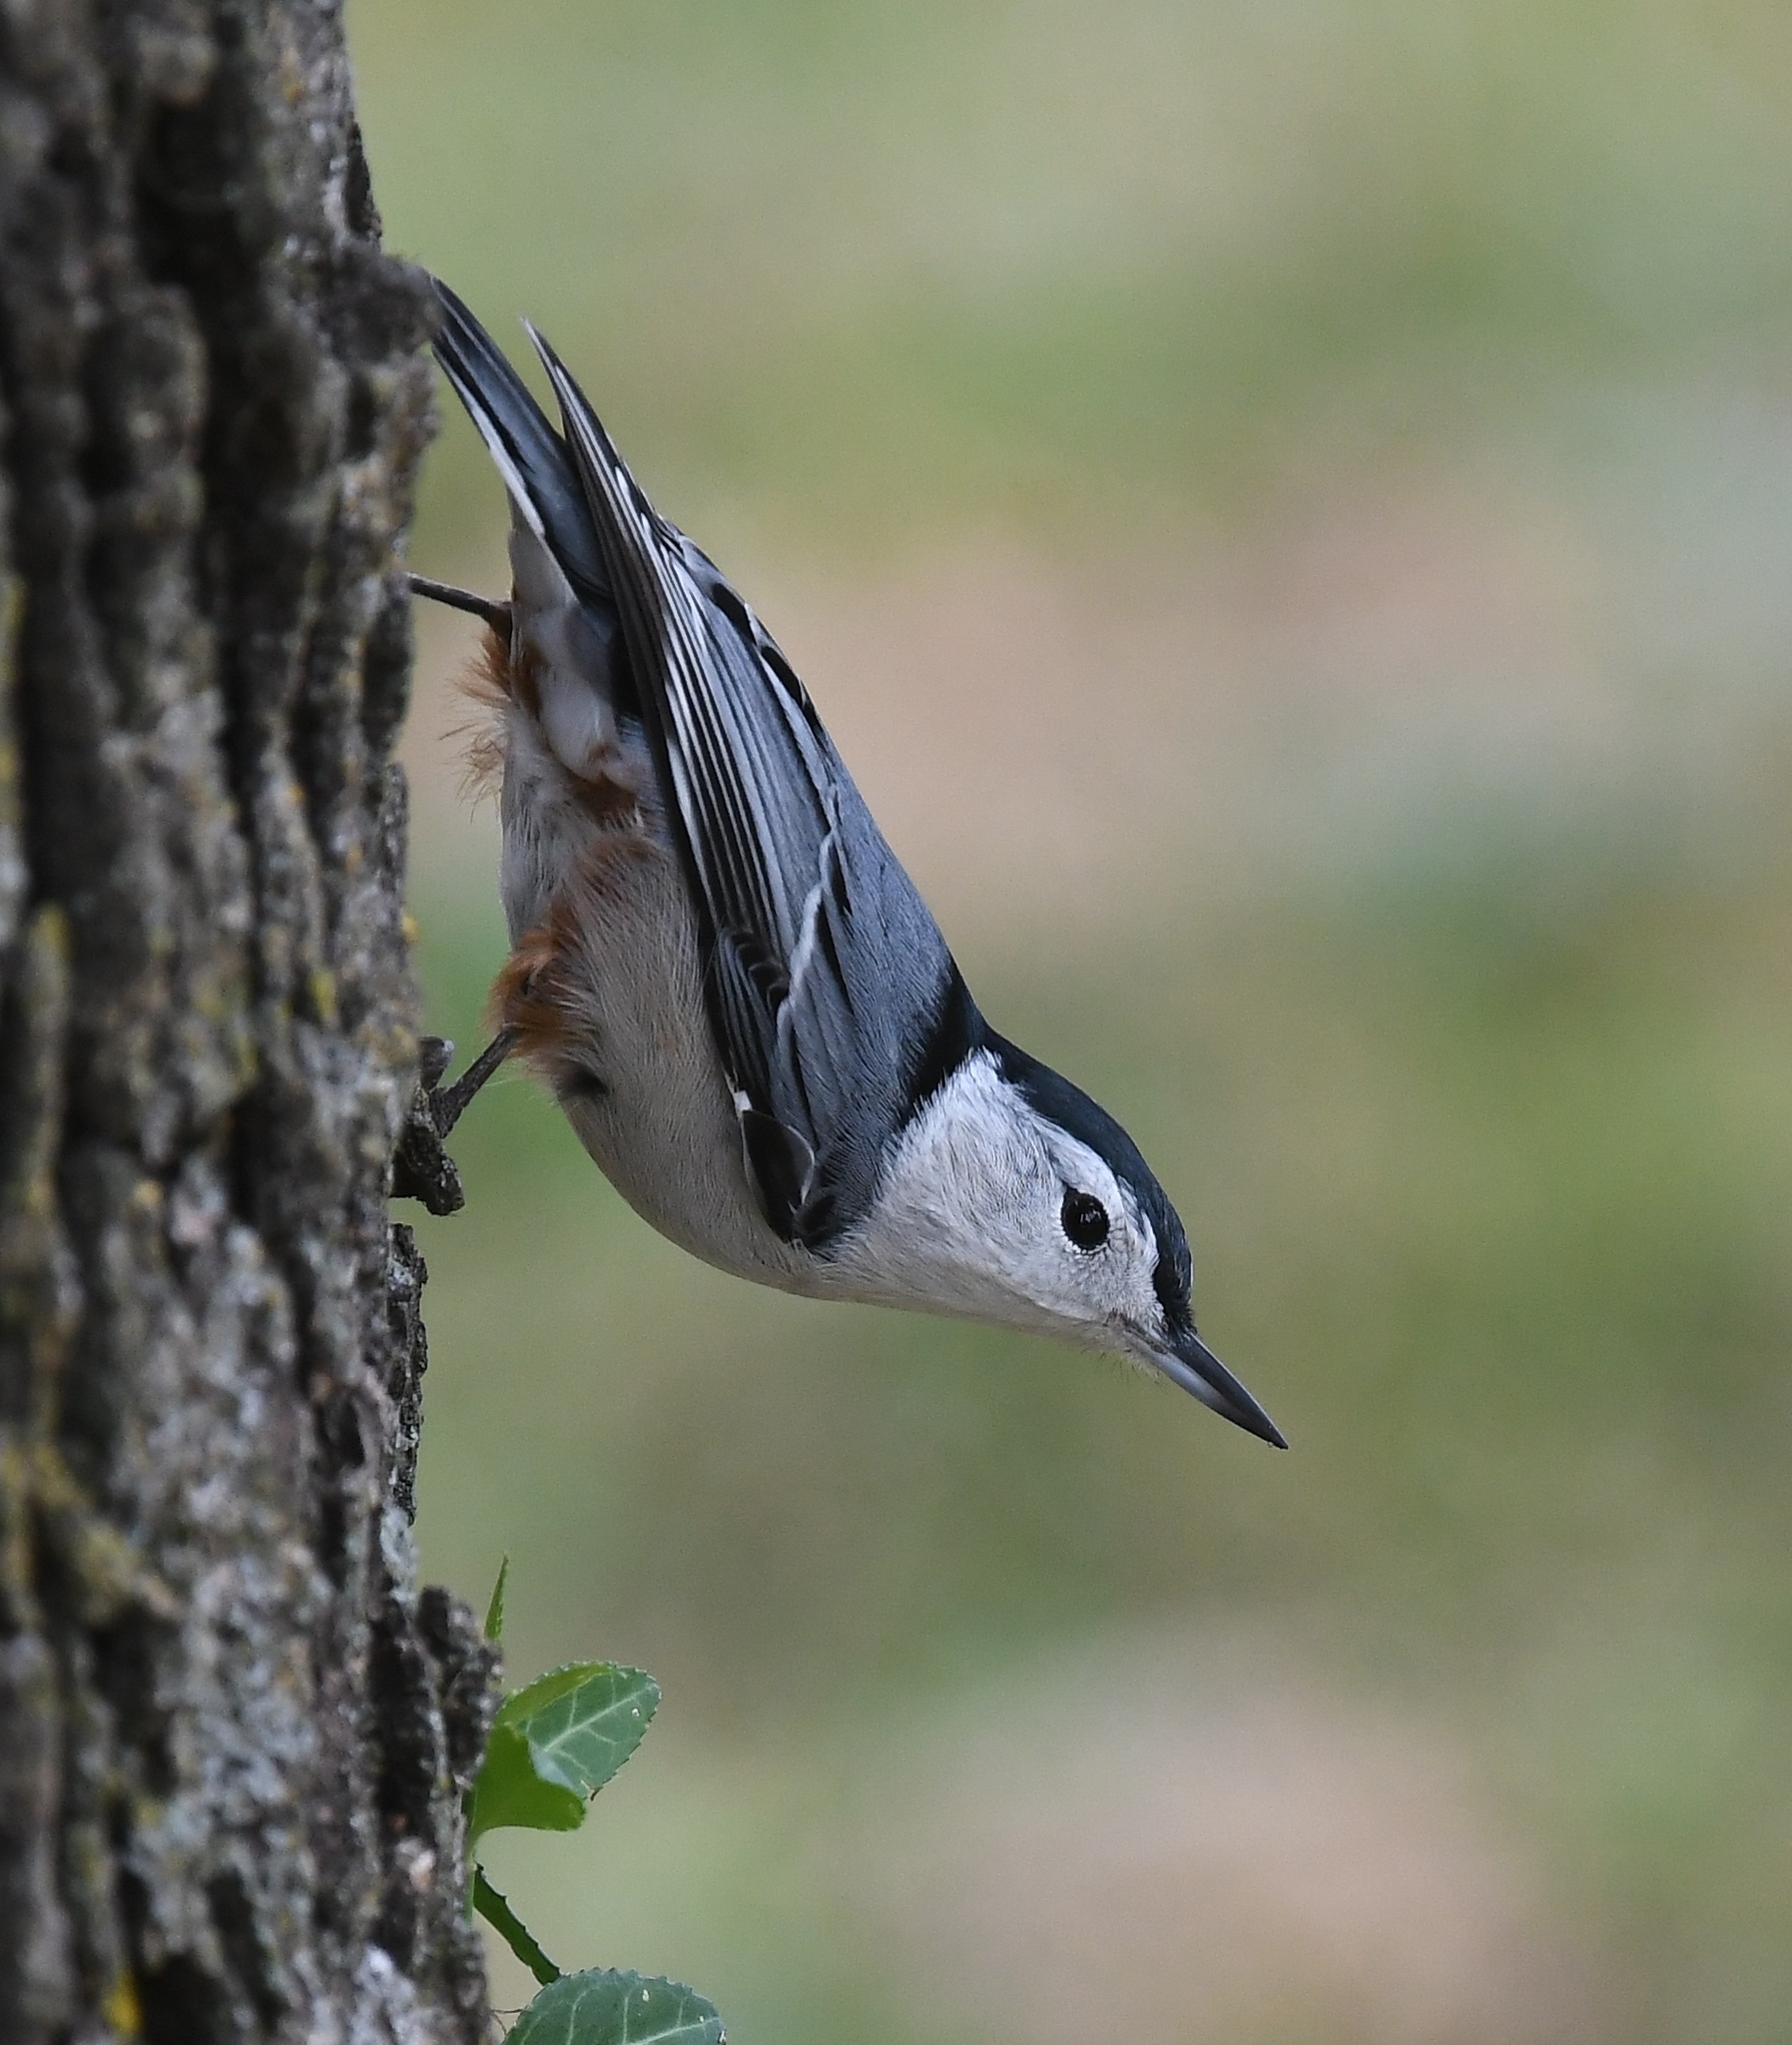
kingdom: Animalia
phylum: Chordata
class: Aves
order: Passeriformes
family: Sittidae
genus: Sitta
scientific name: Sitta carolinensis
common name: White-breasted nuthatch
